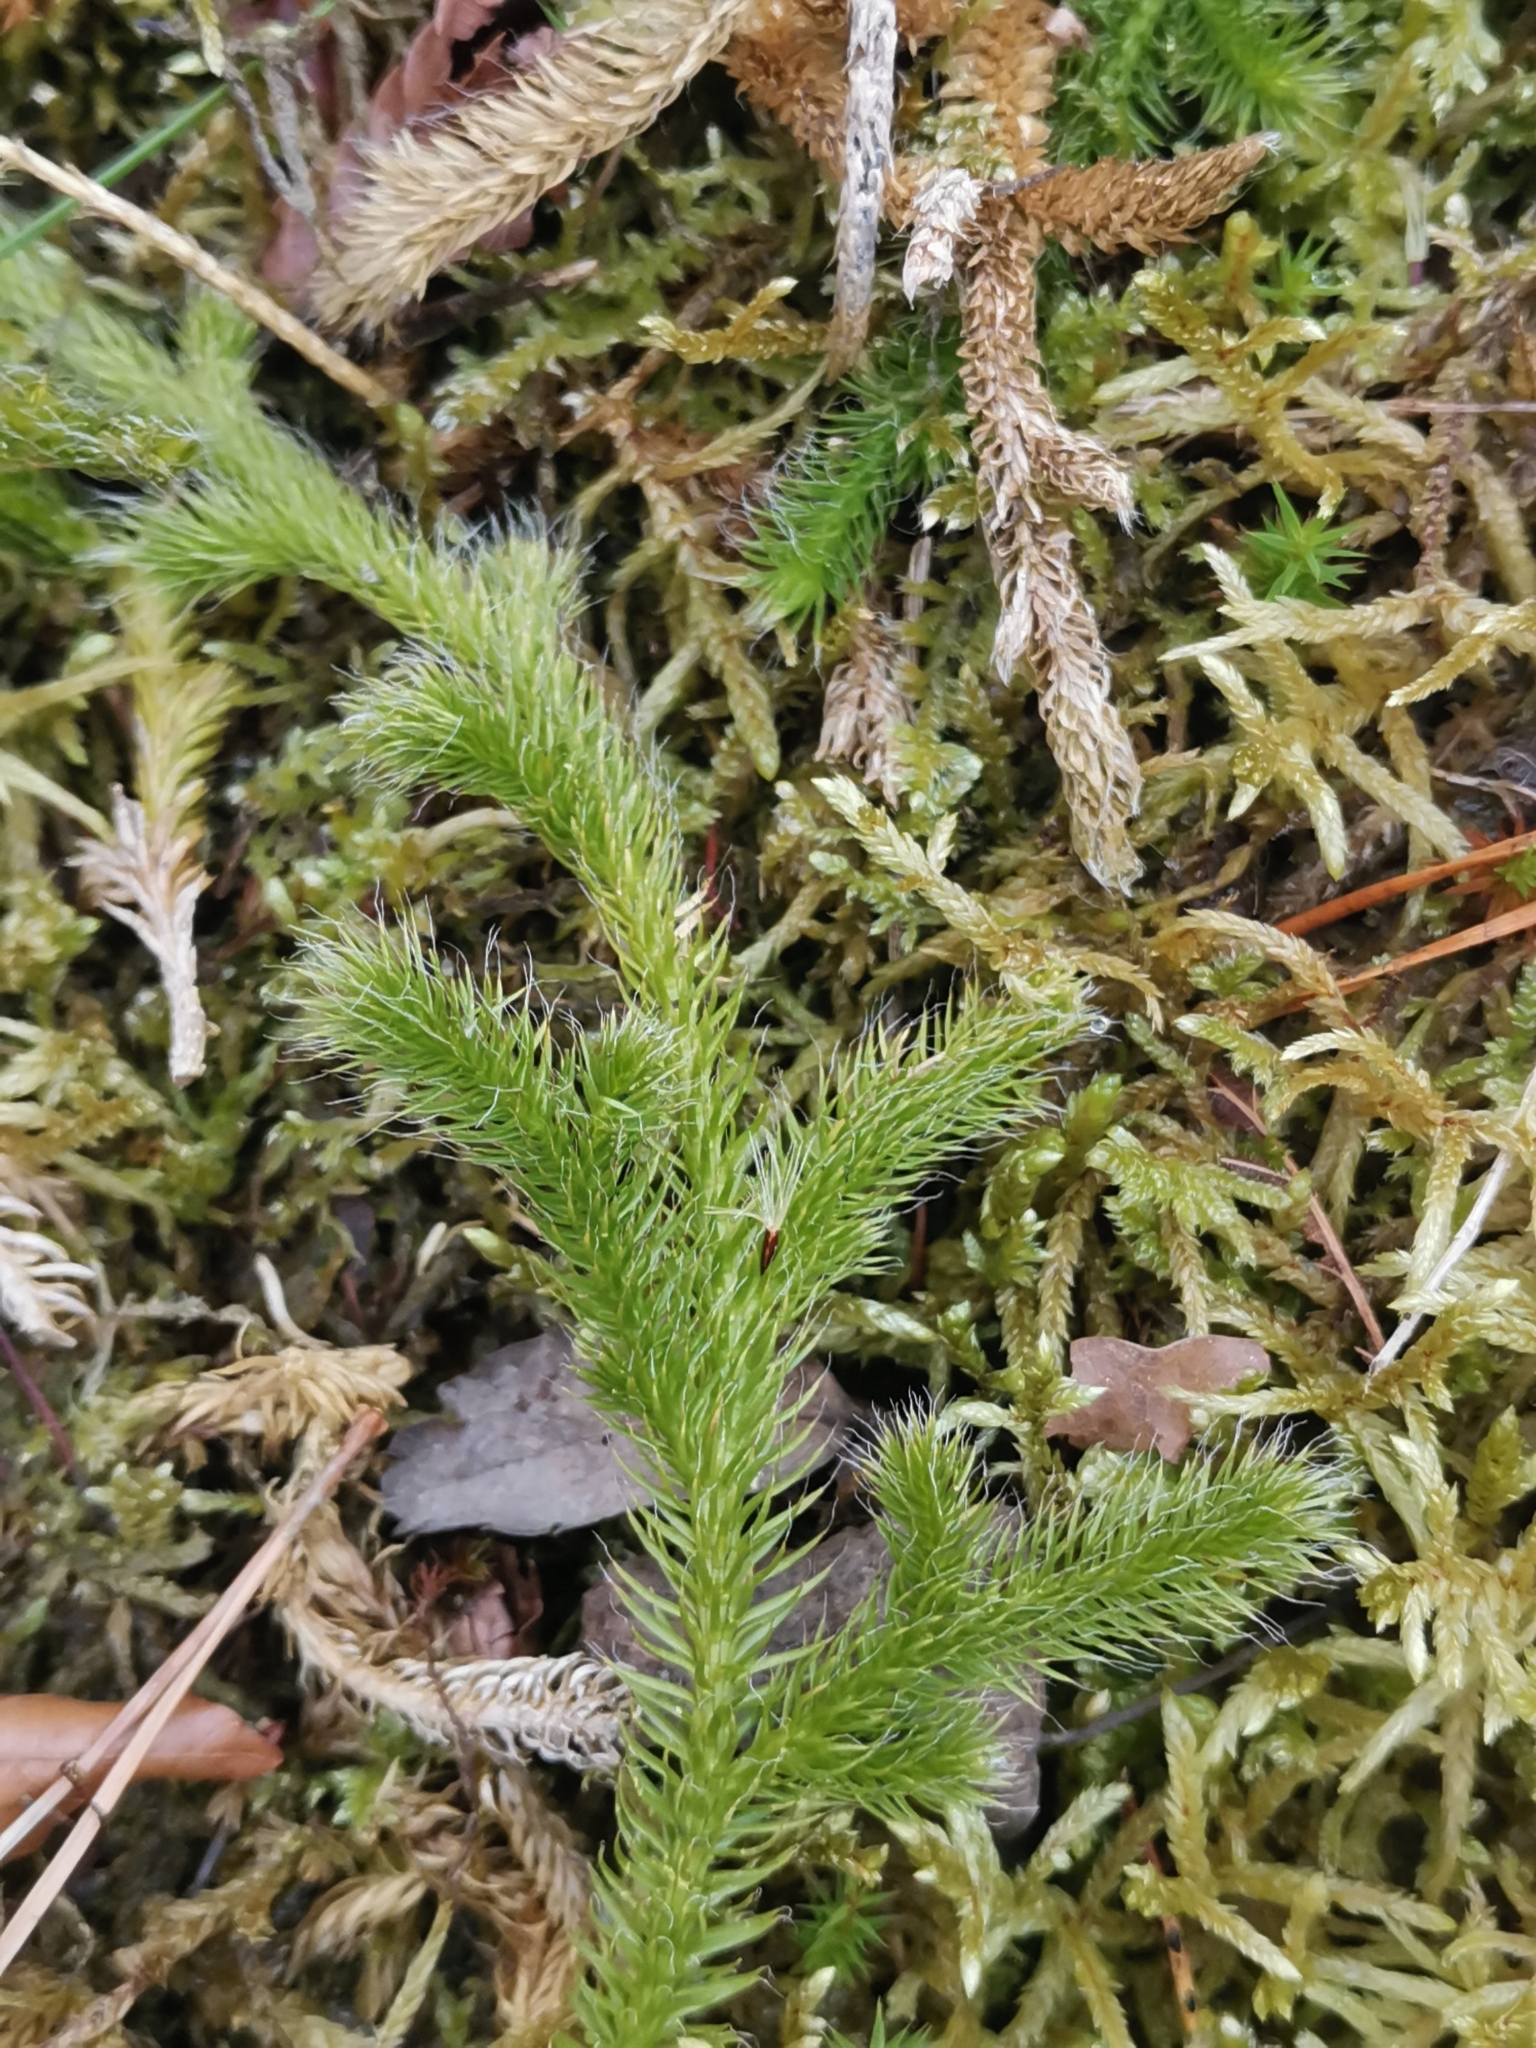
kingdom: Plantae
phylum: Tracheophyta
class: Lycopodiopsida
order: Lycopodiales
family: Lycopodiaceae
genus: Lycopodium
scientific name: Lycopodium clavatum
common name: Stag's-horn clubmoss
